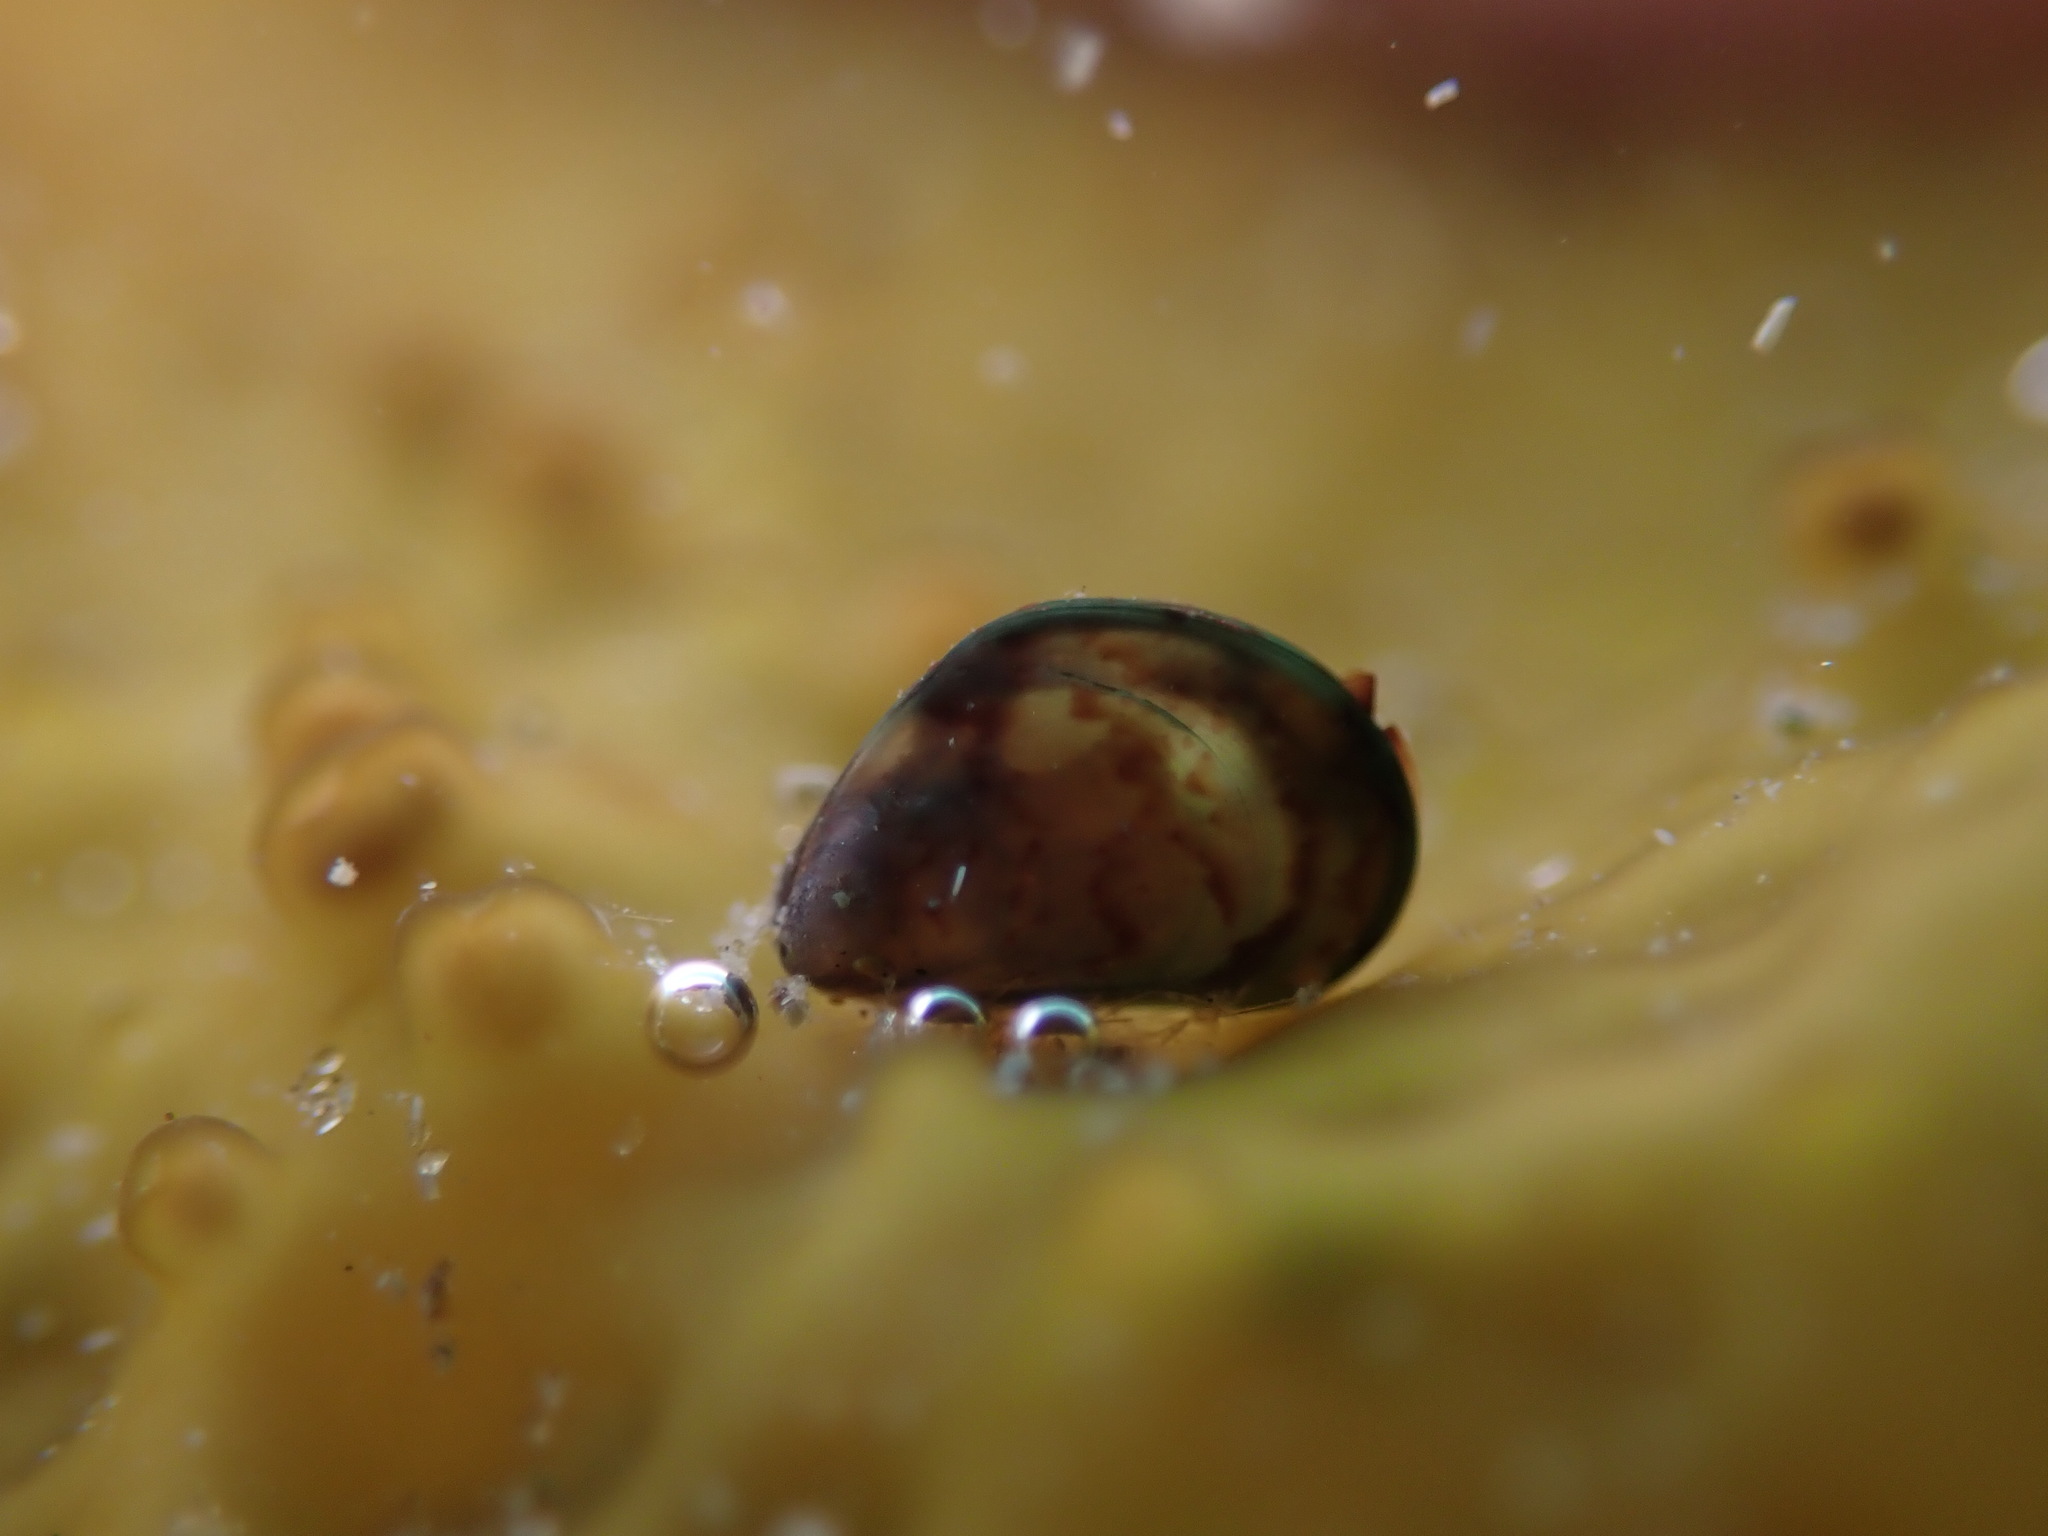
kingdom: Animalia
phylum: Mollusca
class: Bivalvia
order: Mytilida
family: Mytilidae
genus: Perna
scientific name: Perna canaliculus
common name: New zealand greenshelltm
